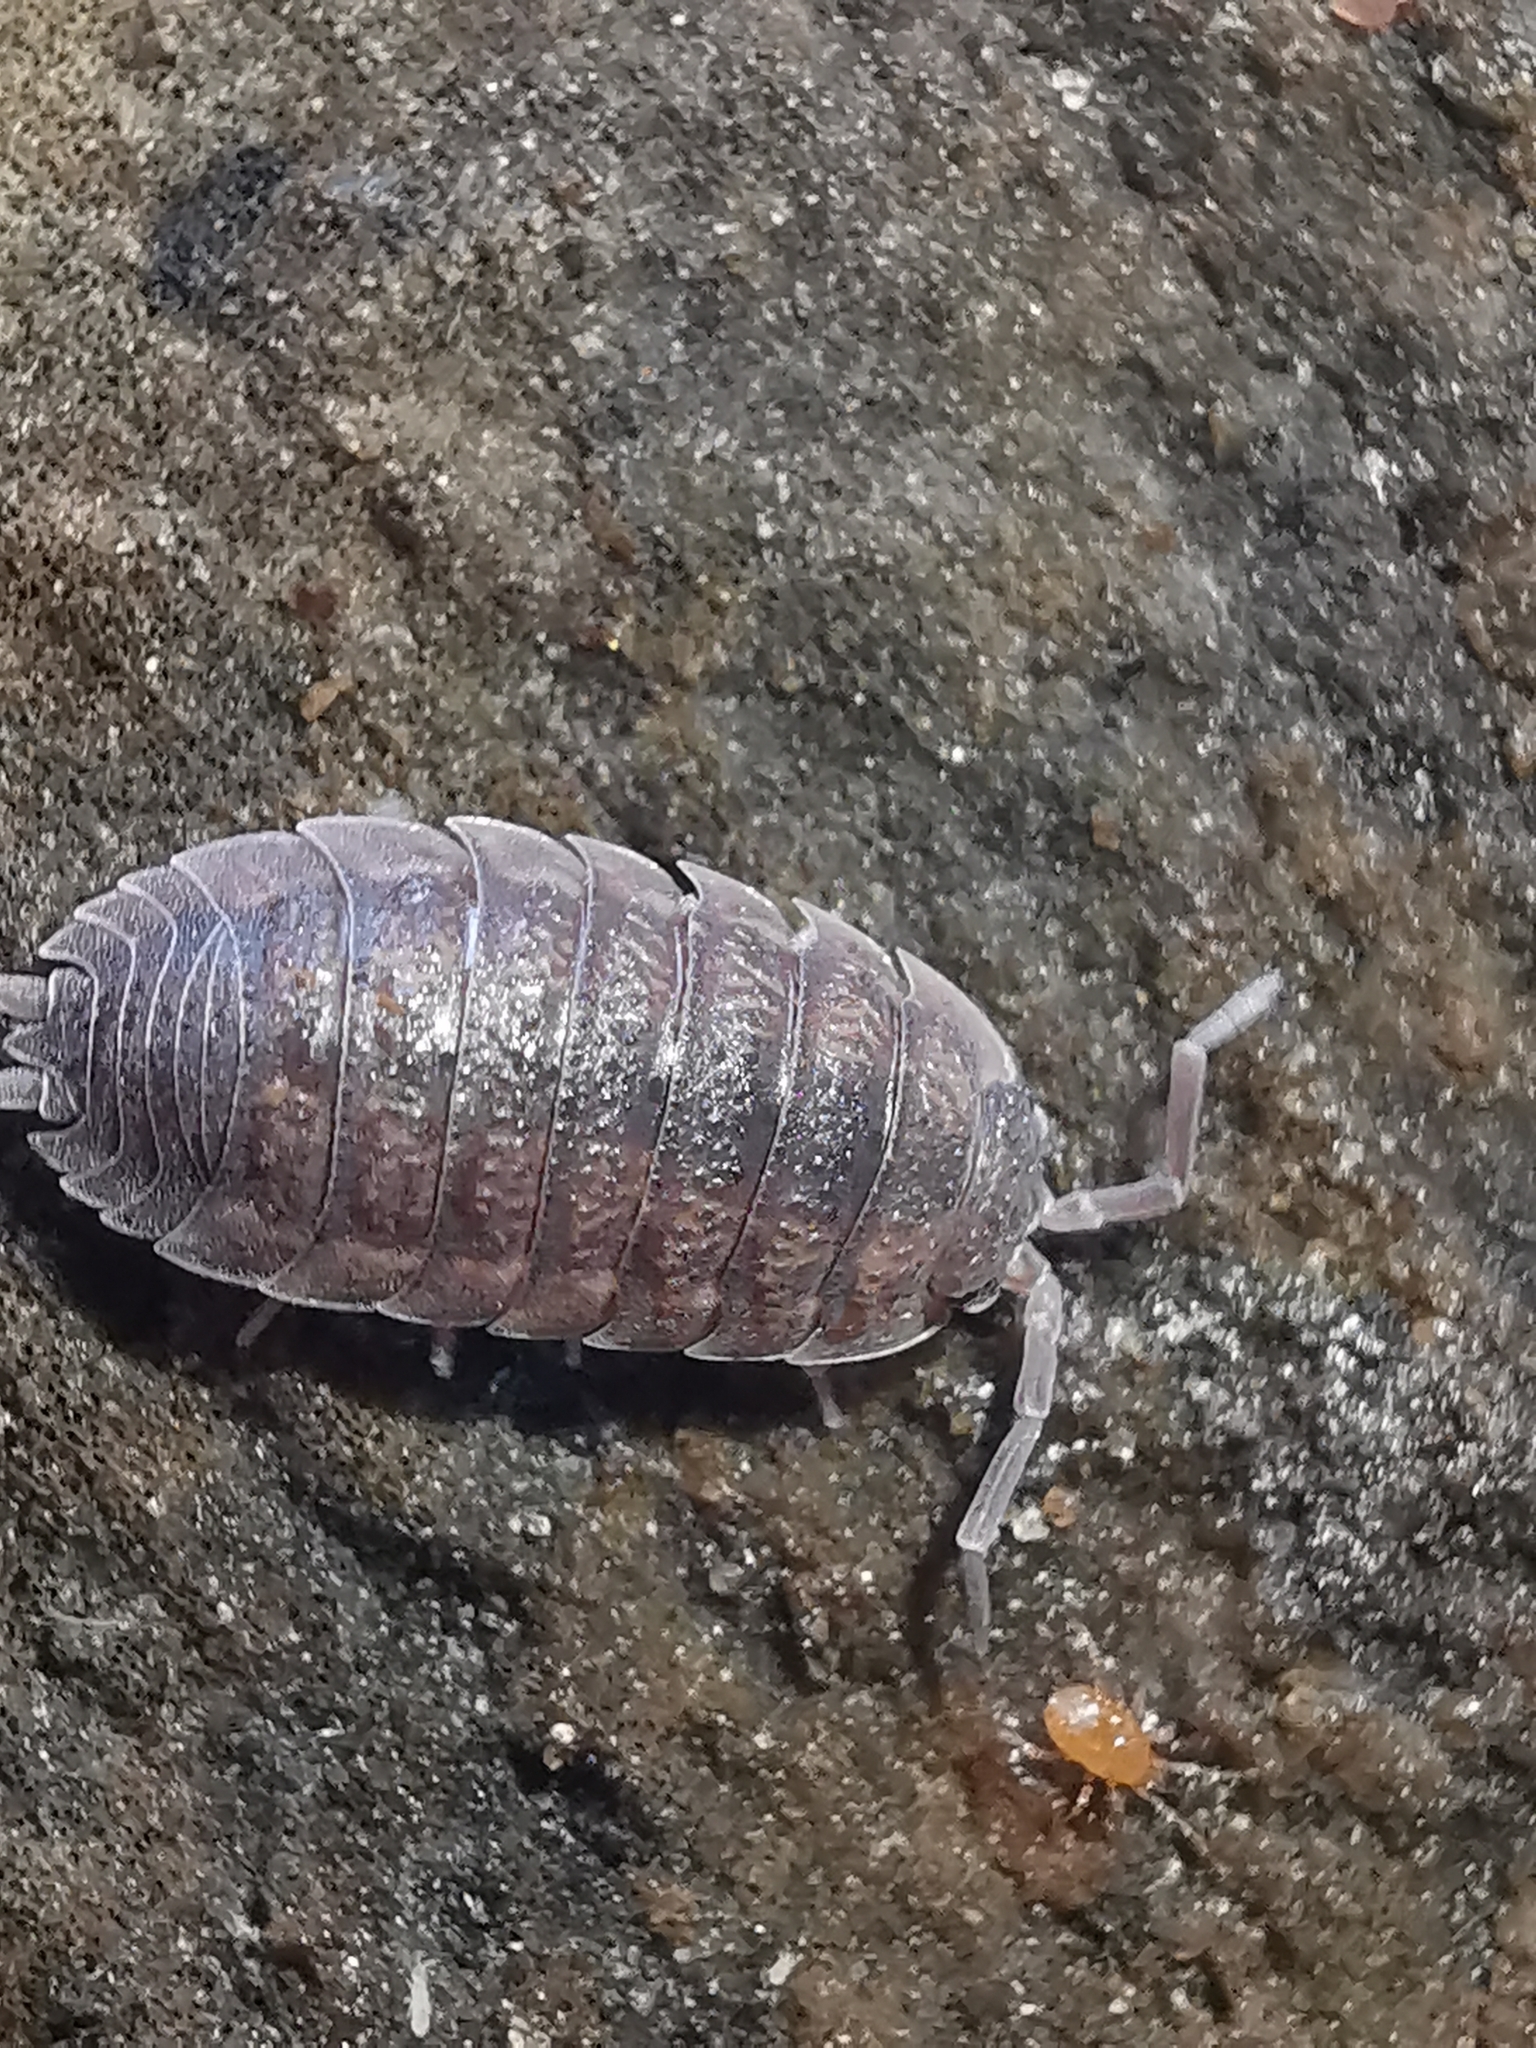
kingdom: Animalia
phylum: Arthropoda
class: Malacostraca
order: Isopoda
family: Porcellionidae
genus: Porcellio
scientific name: Porcellio scaber
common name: Common rough woodlouse
